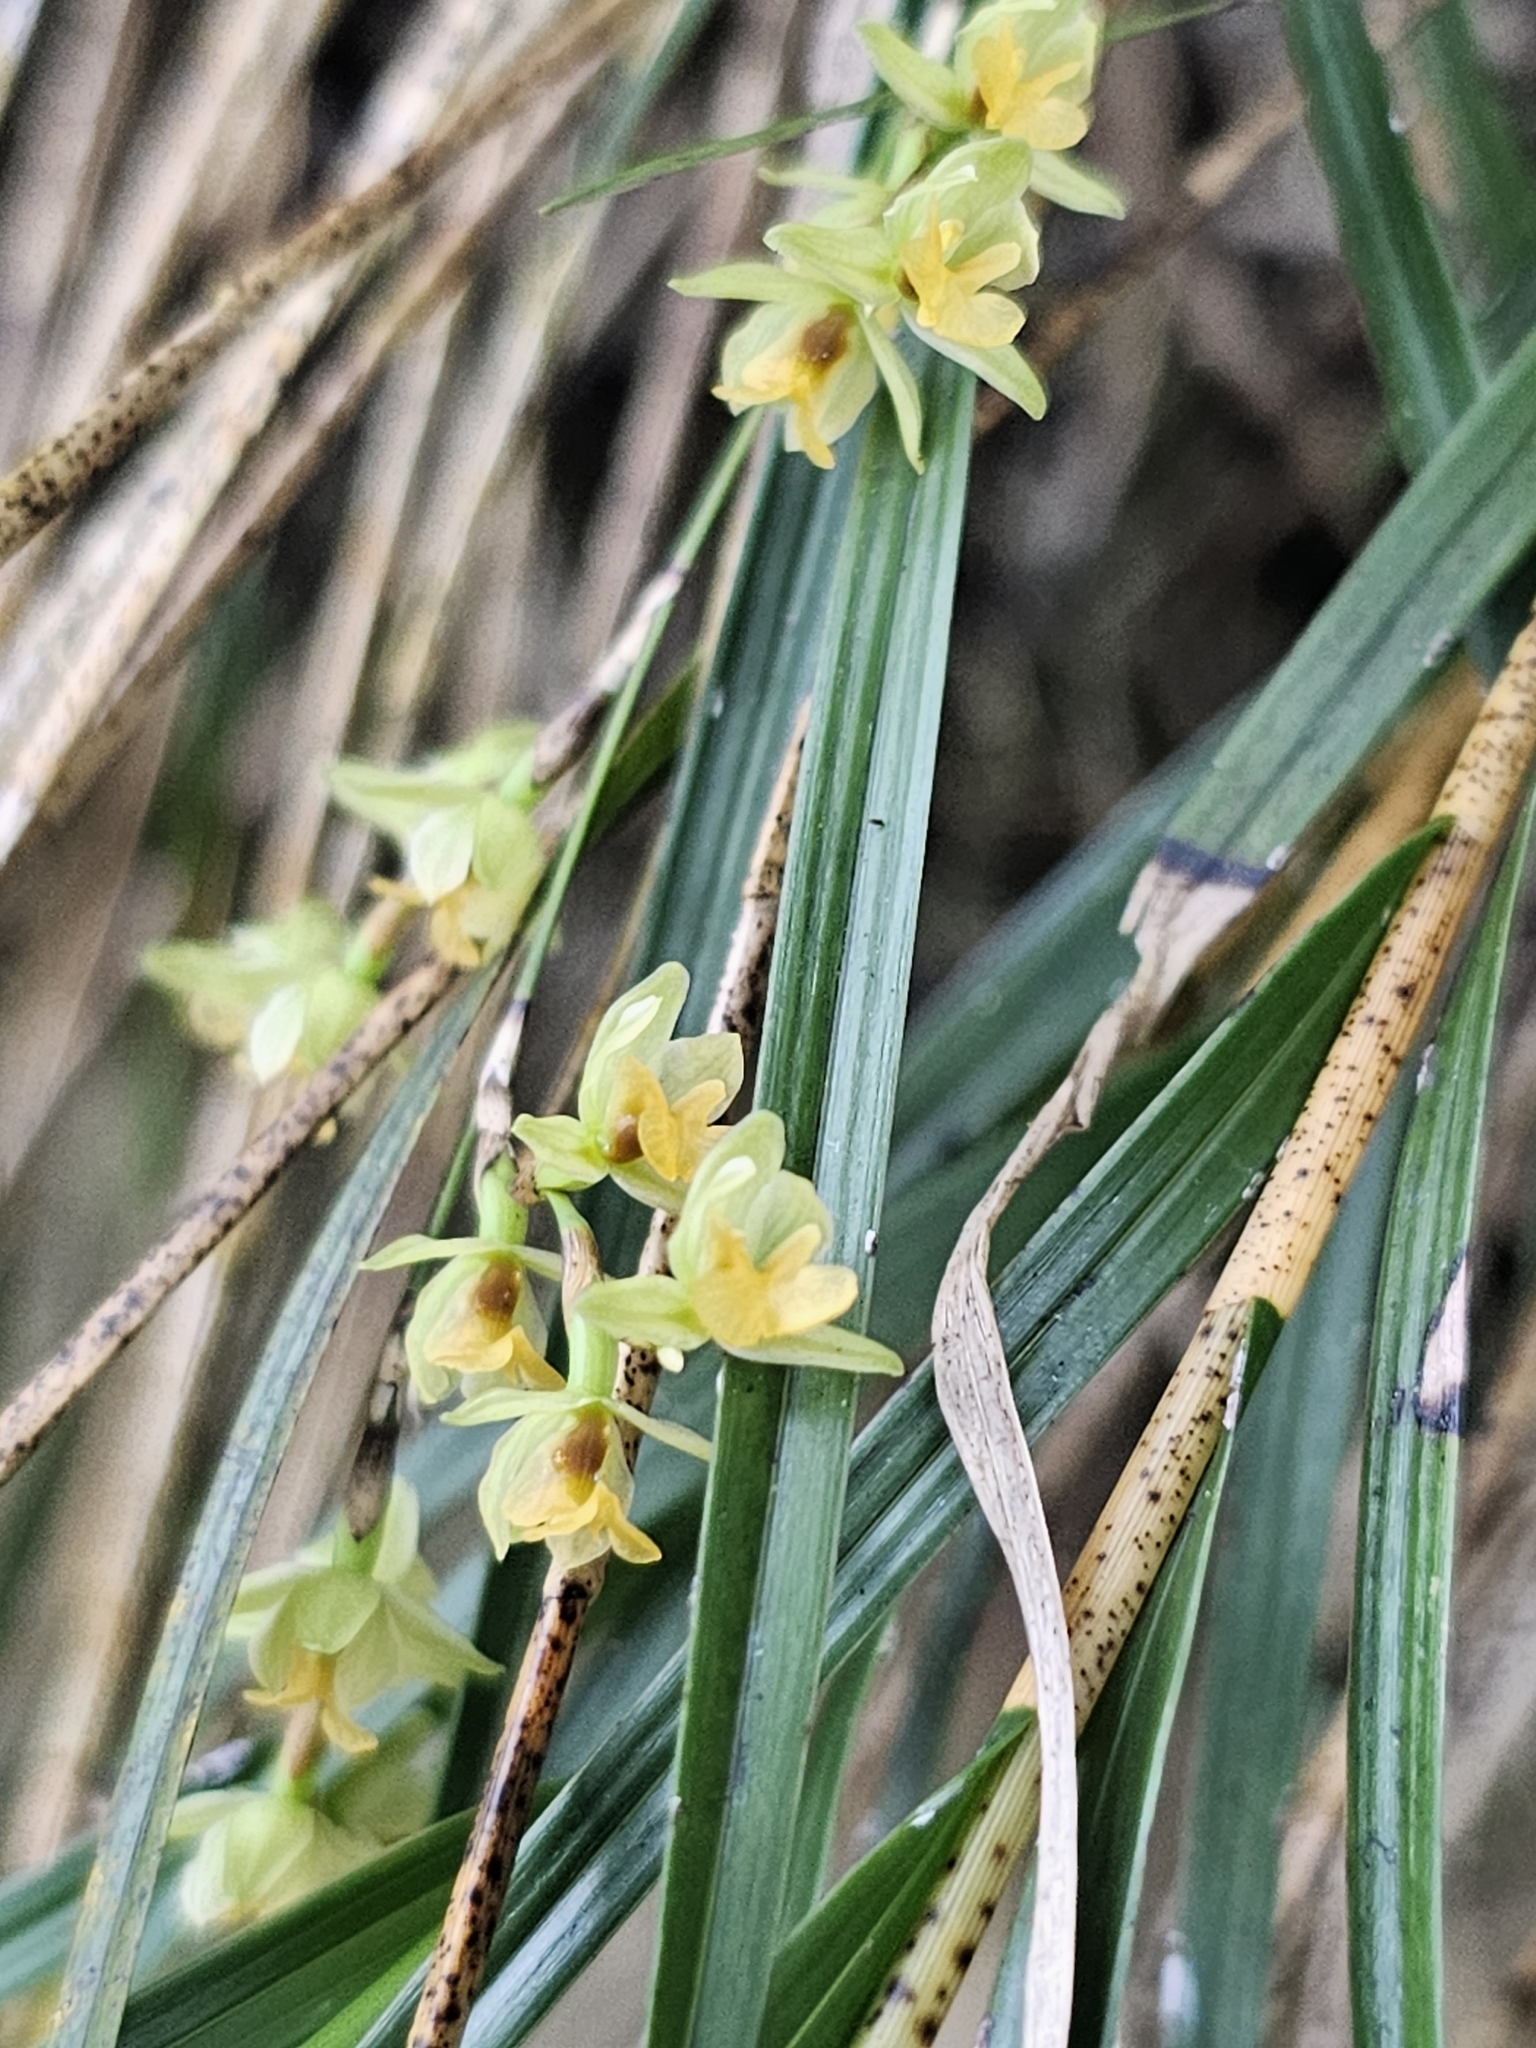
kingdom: Plantae
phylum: Tracheophyta
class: Liliopsida
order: Asparagales
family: Orchidaceae
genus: Earina
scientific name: Earina mucronata
